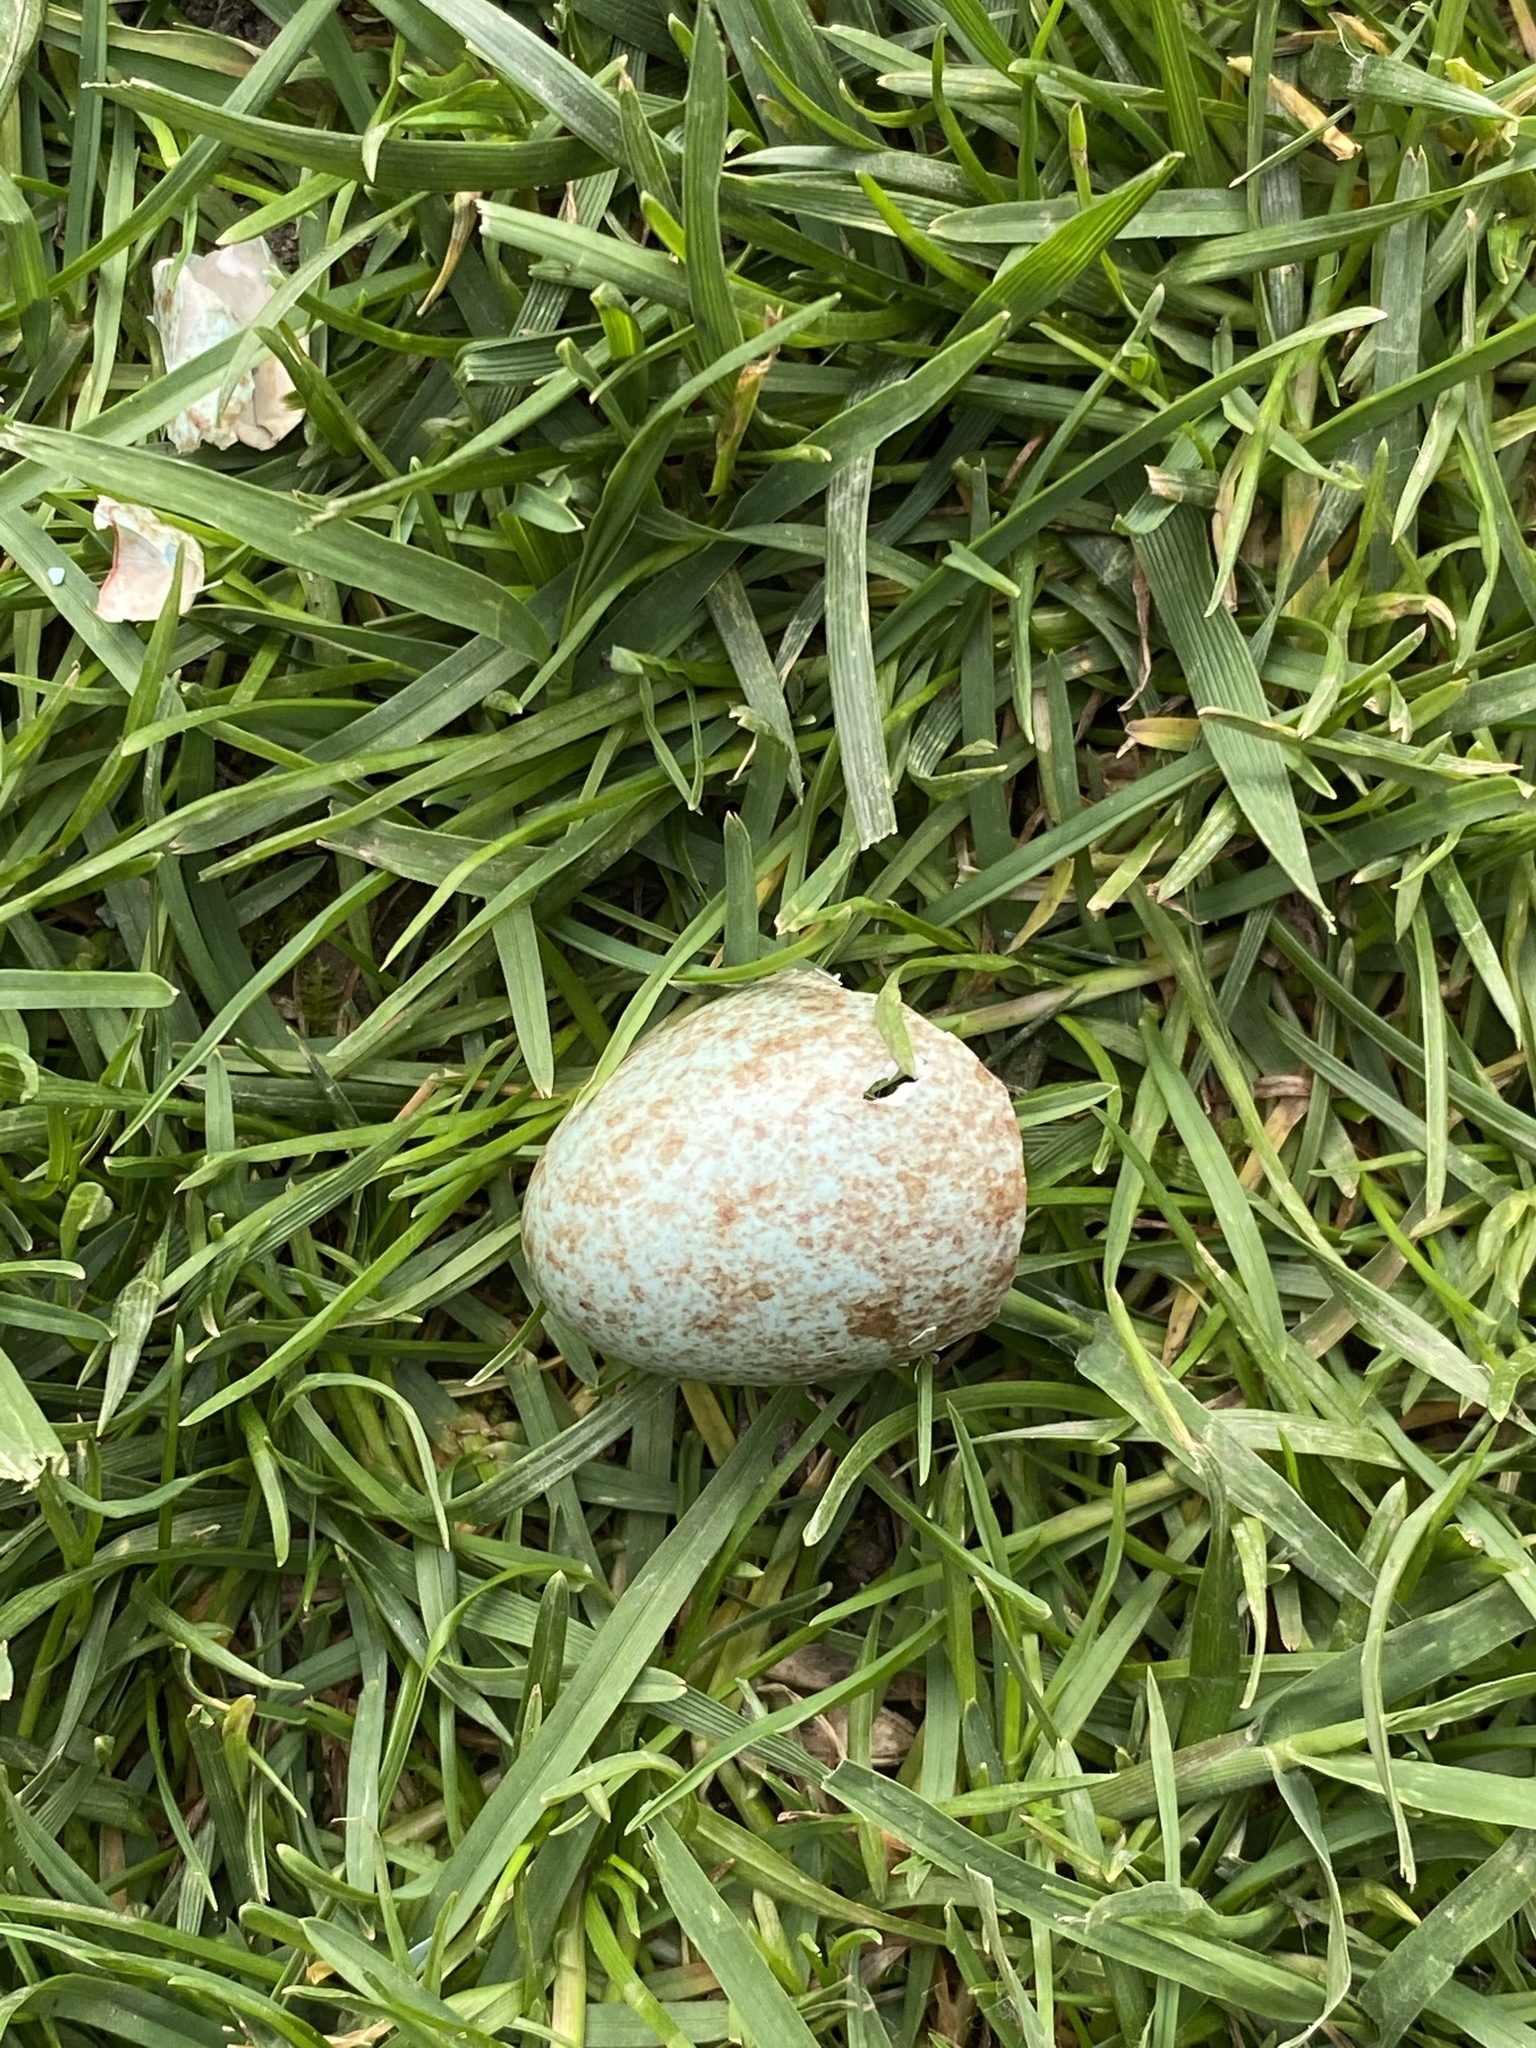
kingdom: Animalia
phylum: Chordata
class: Aves
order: Passeriformes
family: Turdidae
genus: Turdus
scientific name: Turdus merula
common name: Common blackbird
